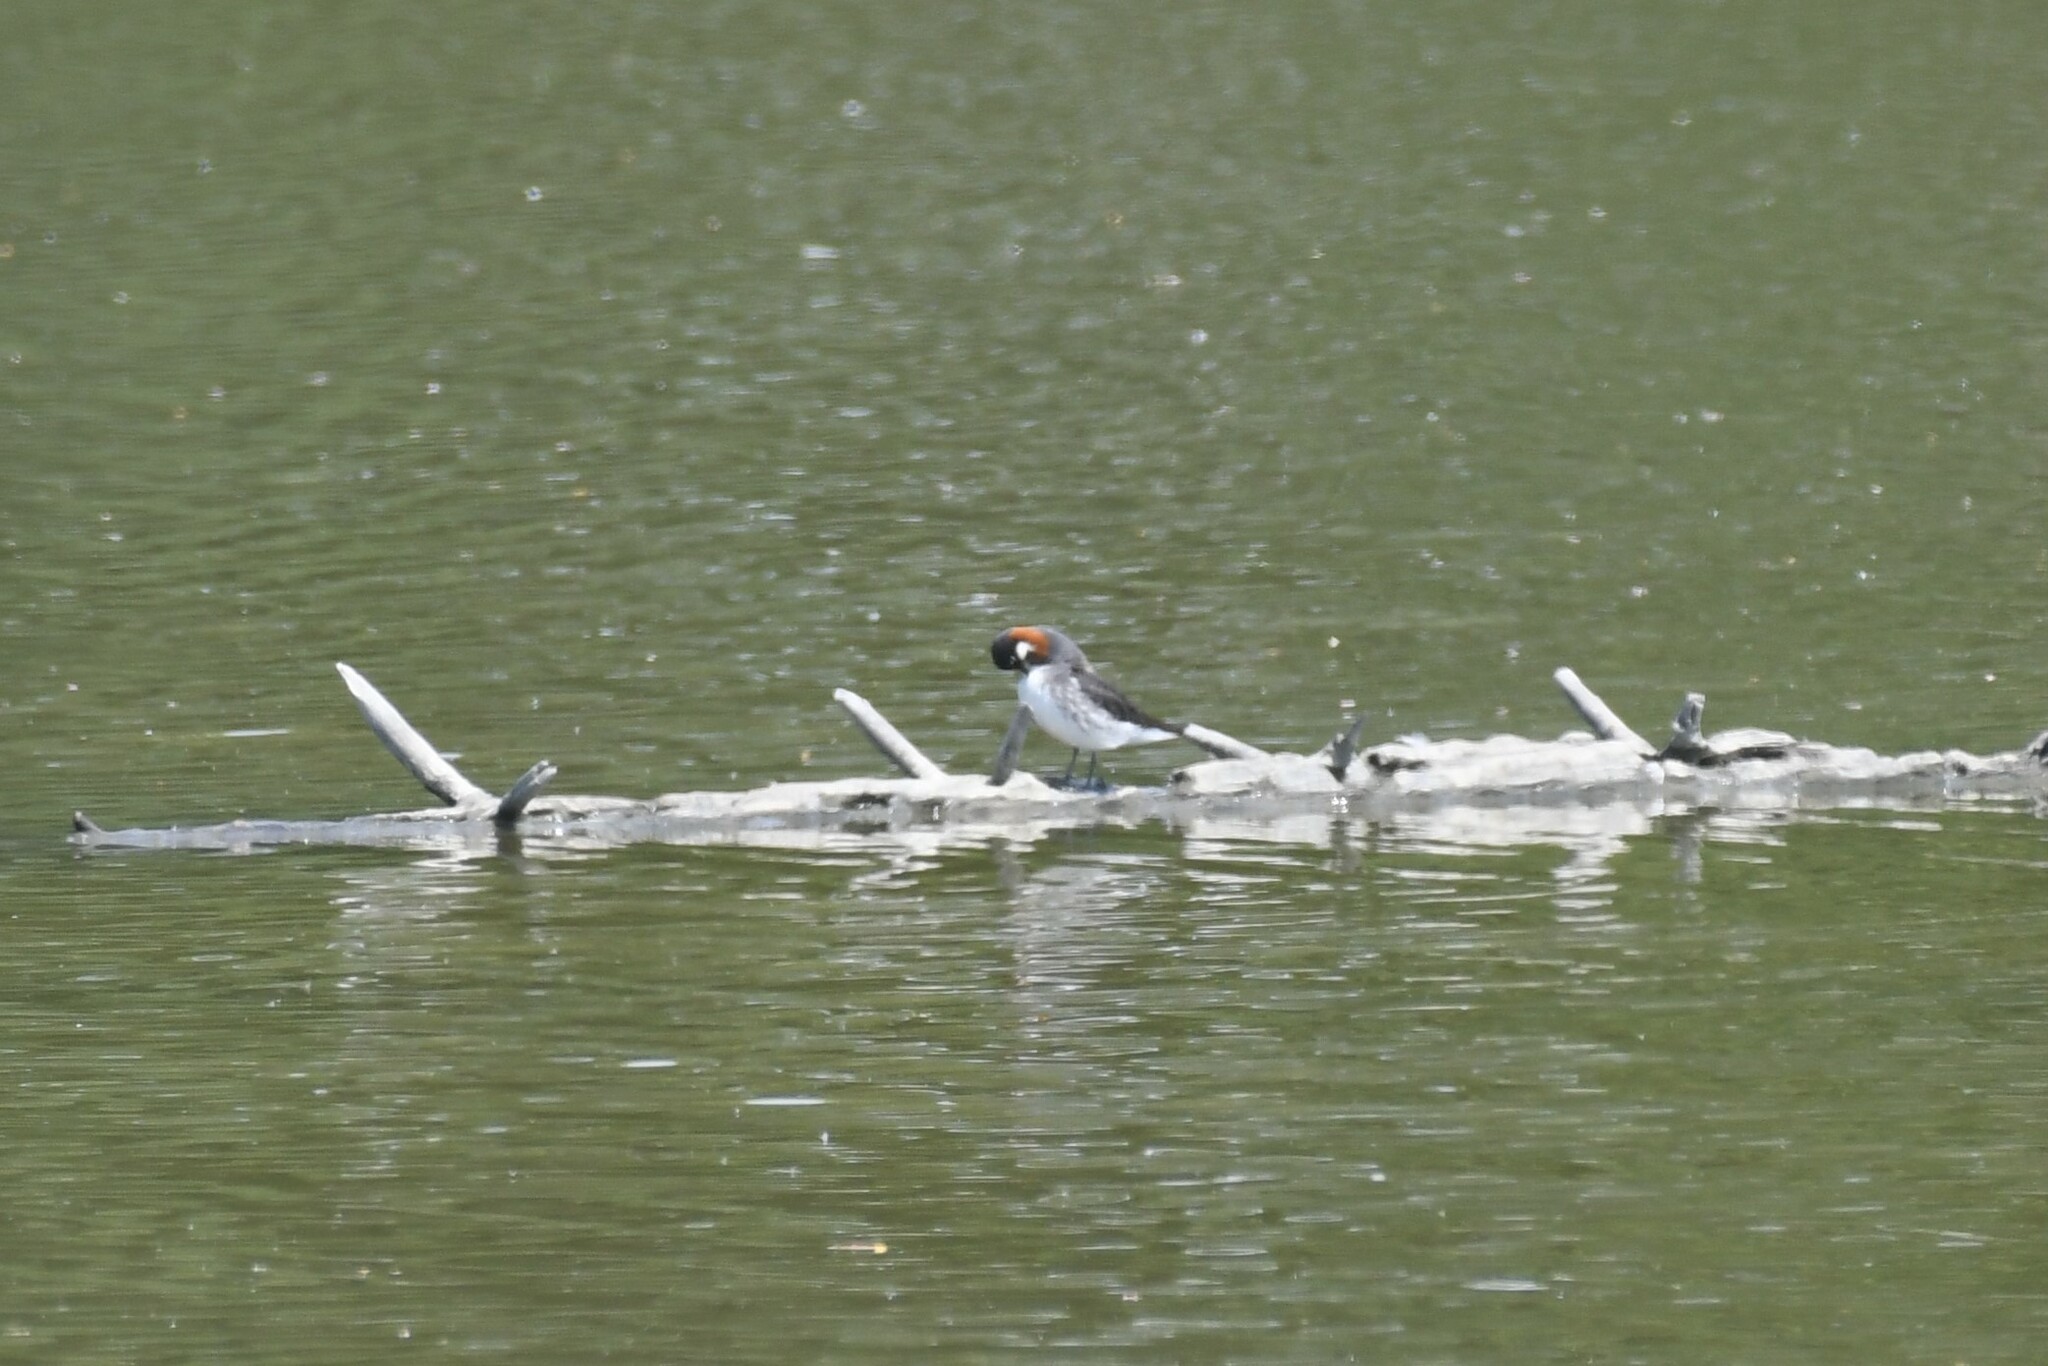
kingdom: Animalia
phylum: Chordata
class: Aves
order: Charadriiformes
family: Scolopacidae
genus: Phalaropus
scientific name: Phalaropus lobatus
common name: Red-necked phalarope
